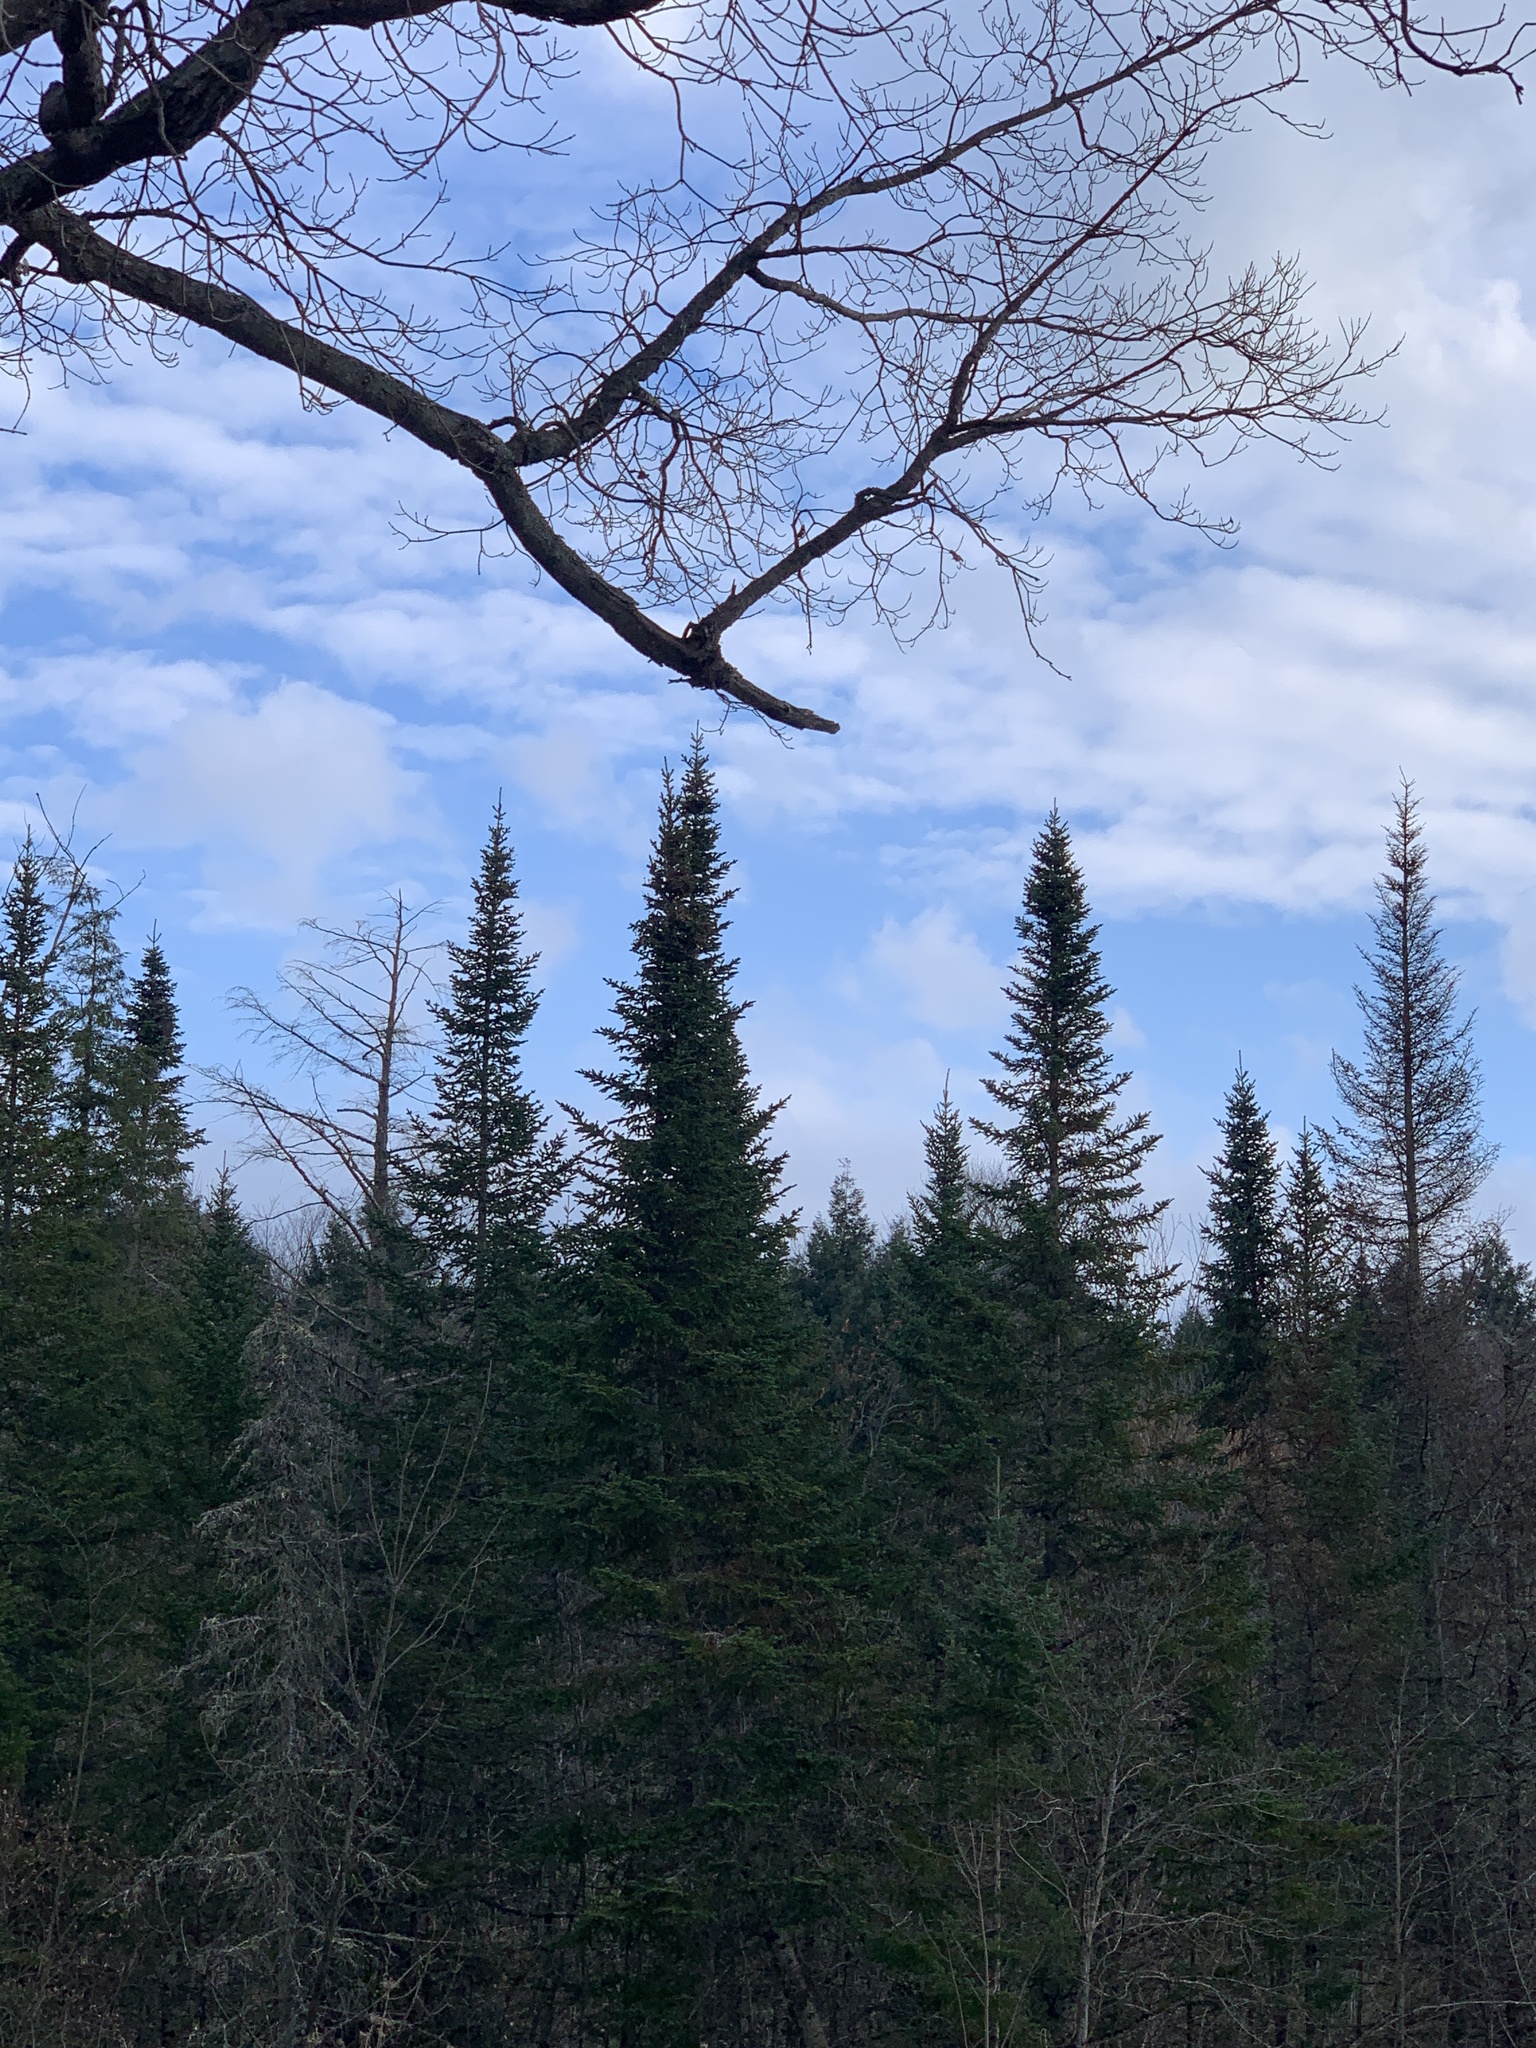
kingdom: Plantae
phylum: Tracheophyta
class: Pinopsida
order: Pinales
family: Pinaceae
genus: Abies
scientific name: Abies balsamea
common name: Balsam fir
